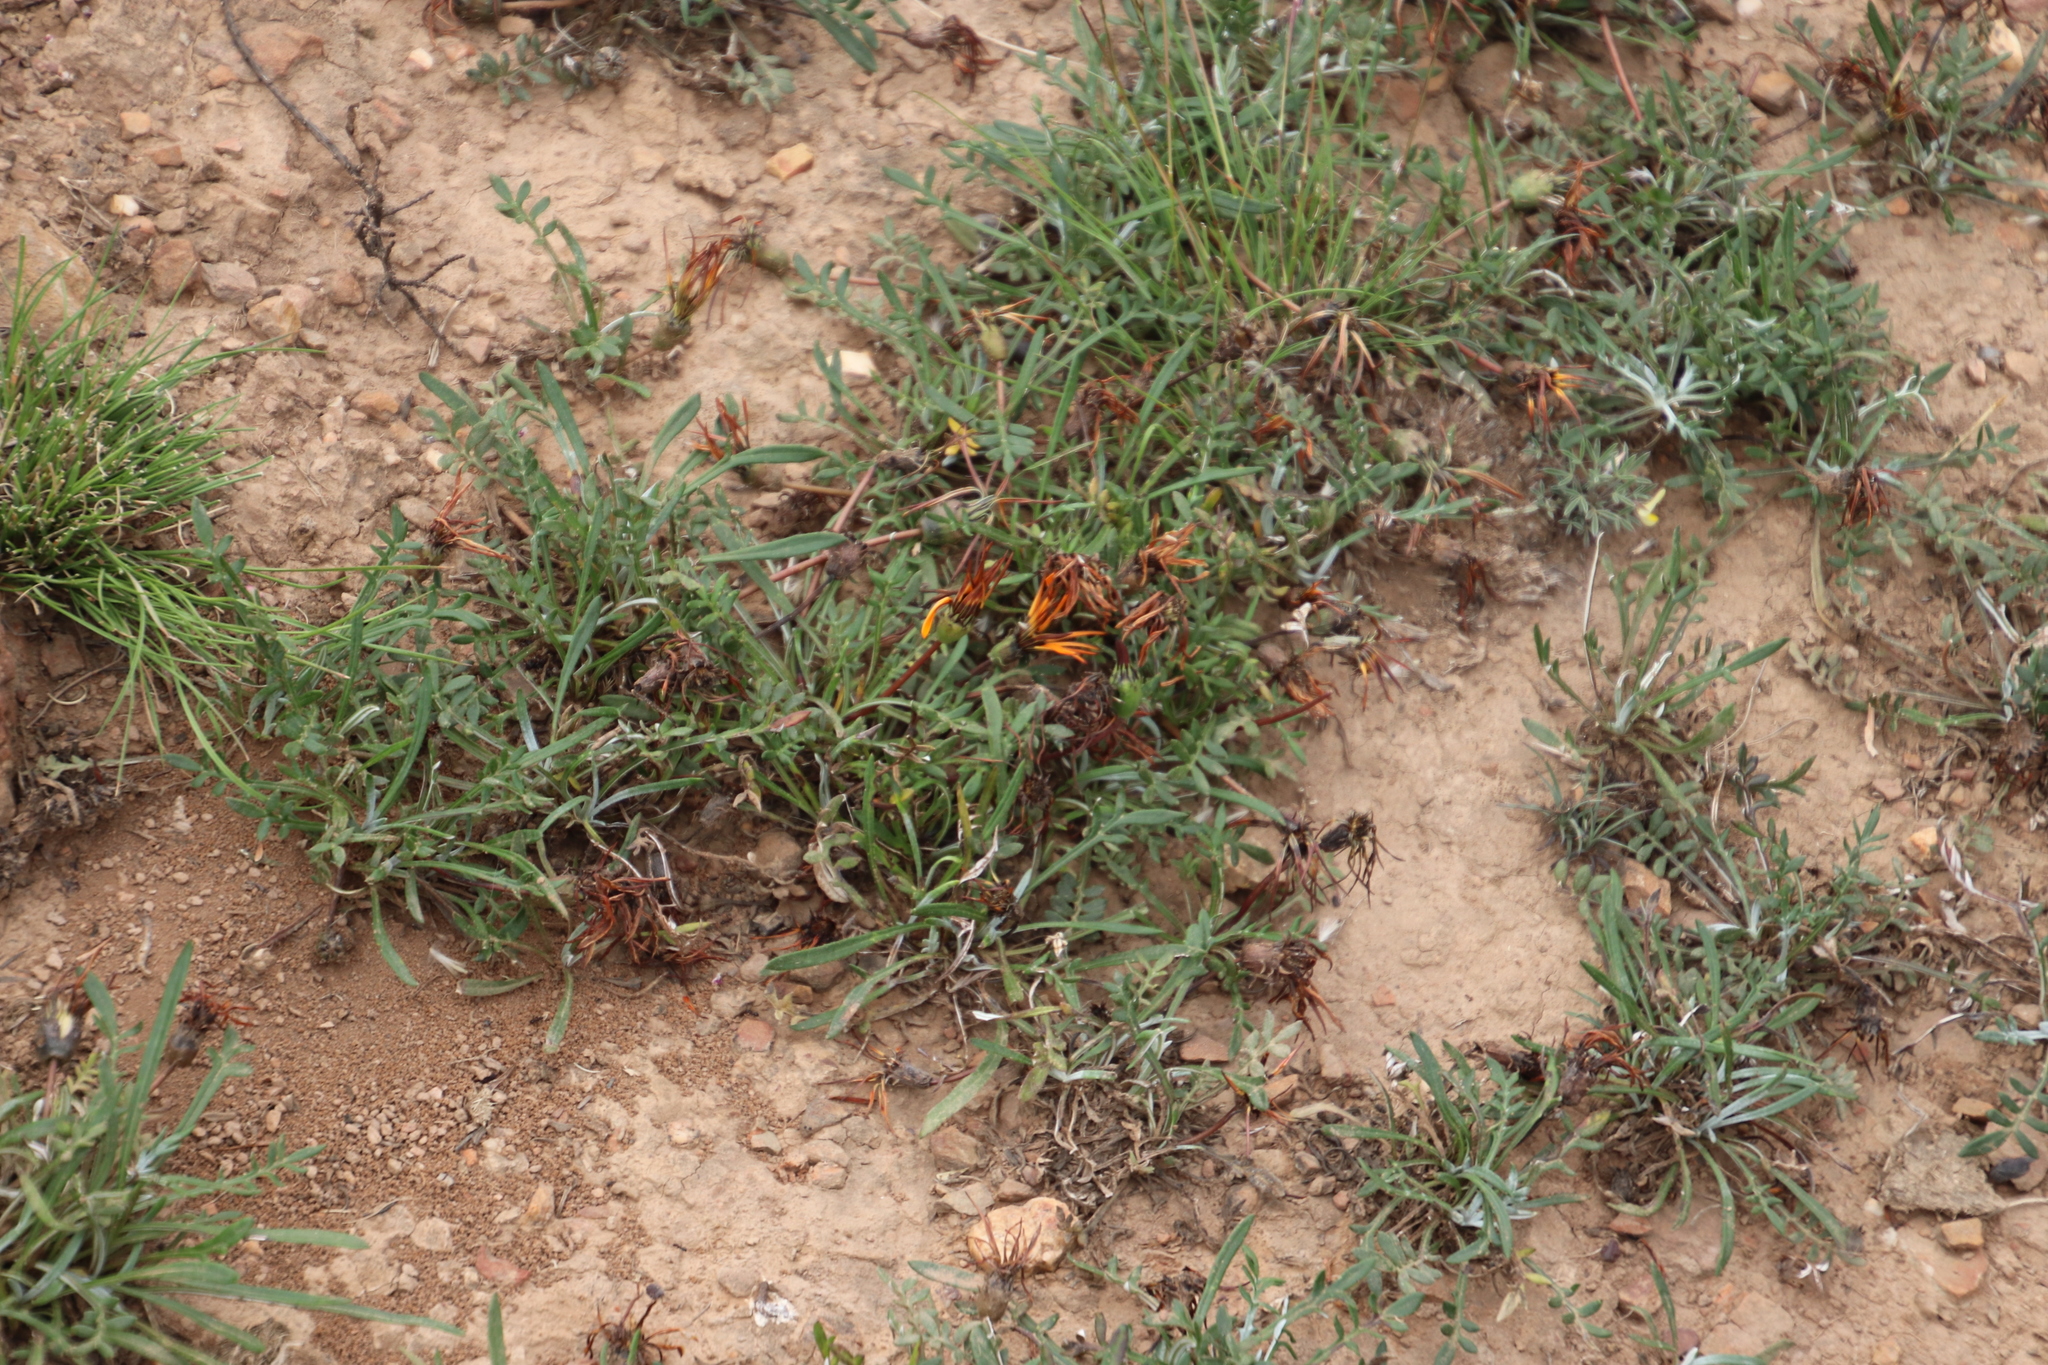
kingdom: Plantae
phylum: Tracheophyta
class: Magnoliopsida
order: Asterales
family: Asteraceae
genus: Gazania
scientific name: Gazania krebsiana
